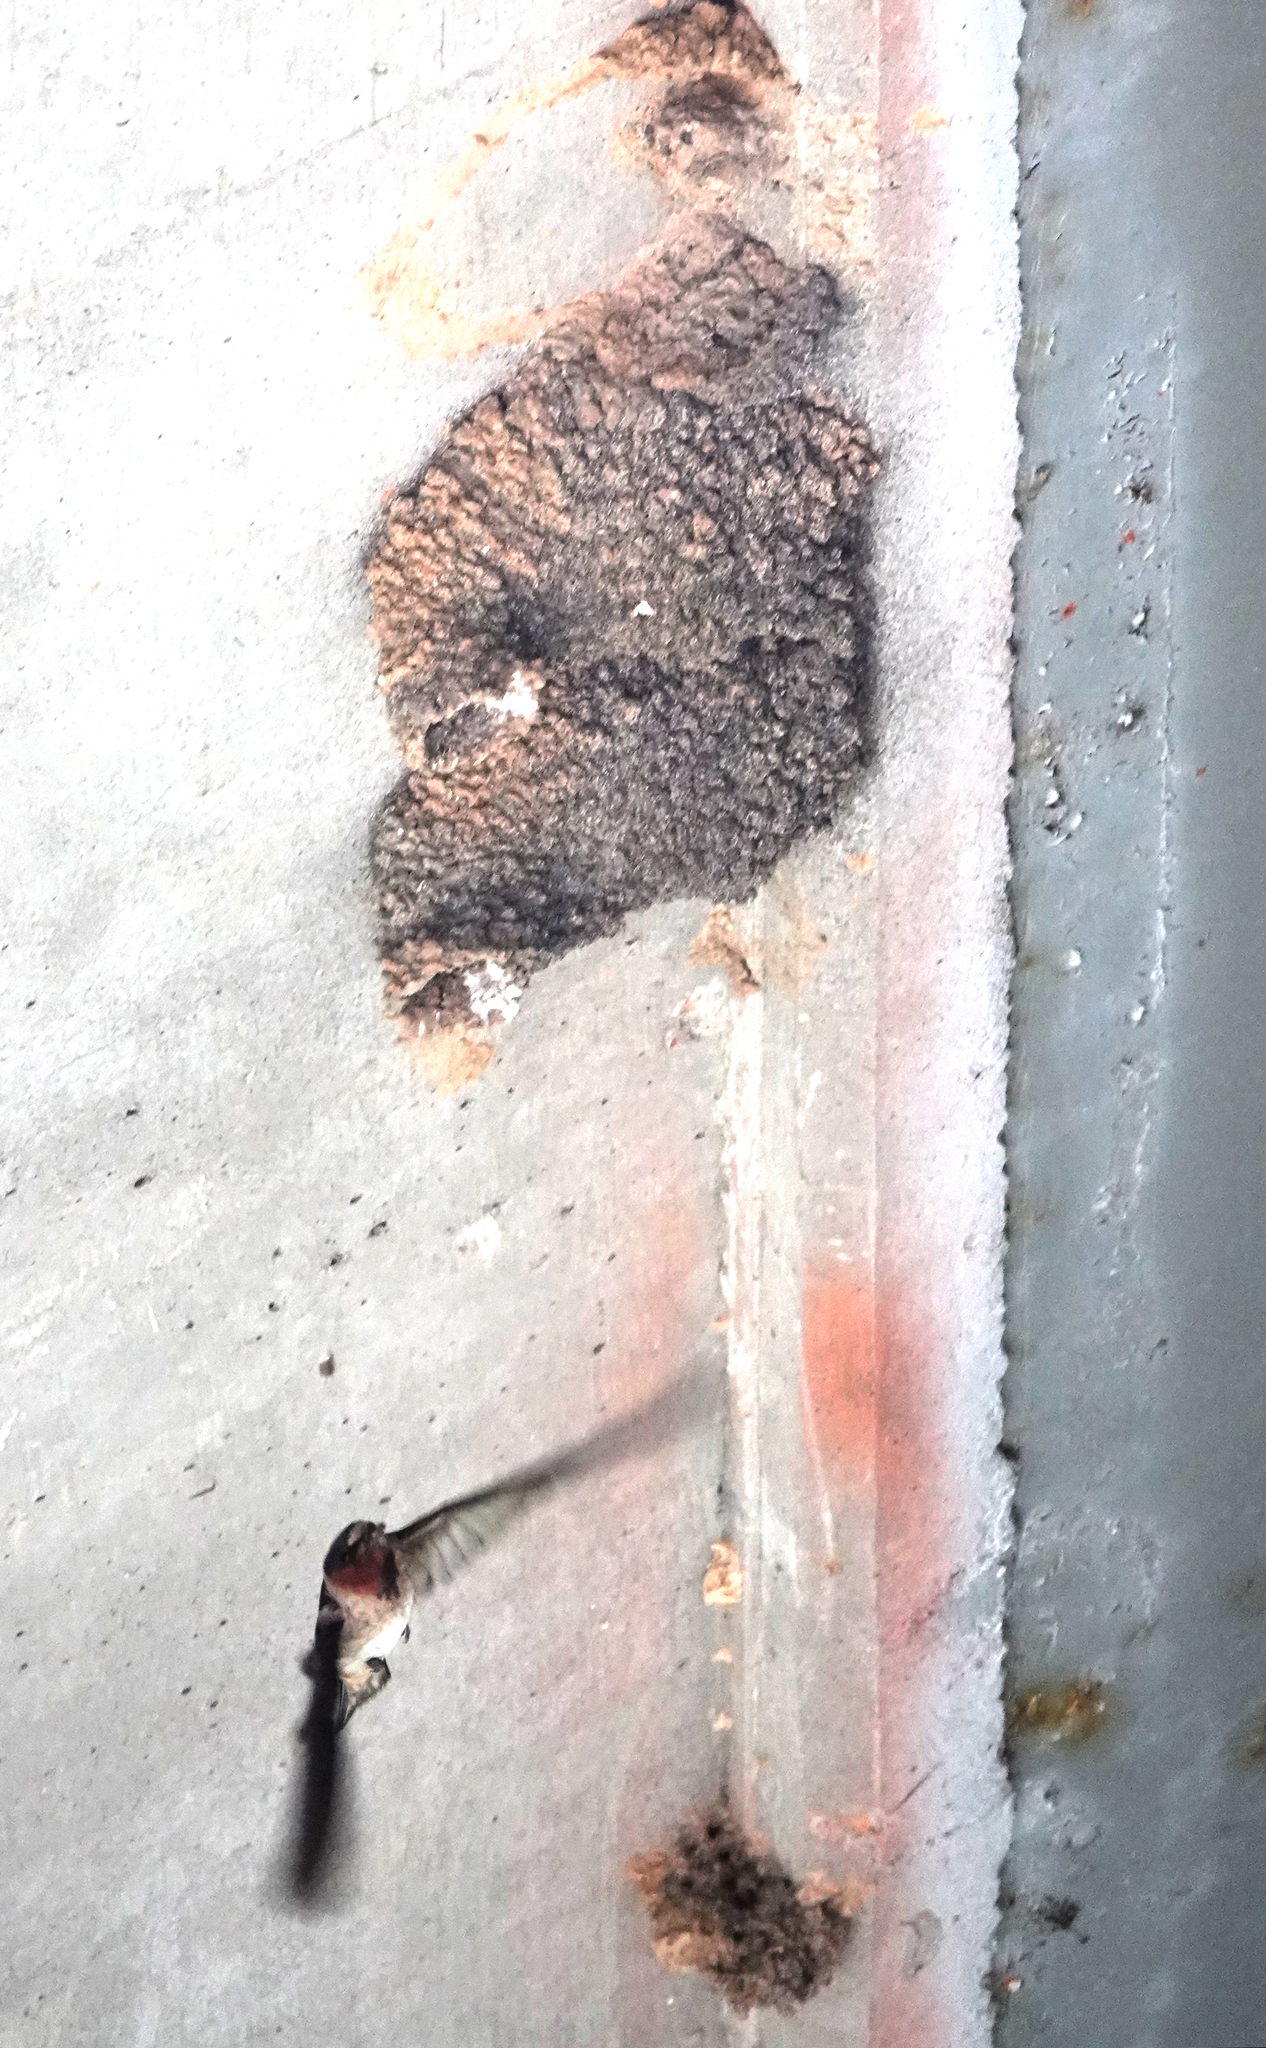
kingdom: Animalia
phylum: Chordata
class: Aves
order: Passeriformes
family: Hirundinidae
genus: Petrochelidon
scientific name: Petrochelidon pyrrhonota
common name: American cliff swallow
